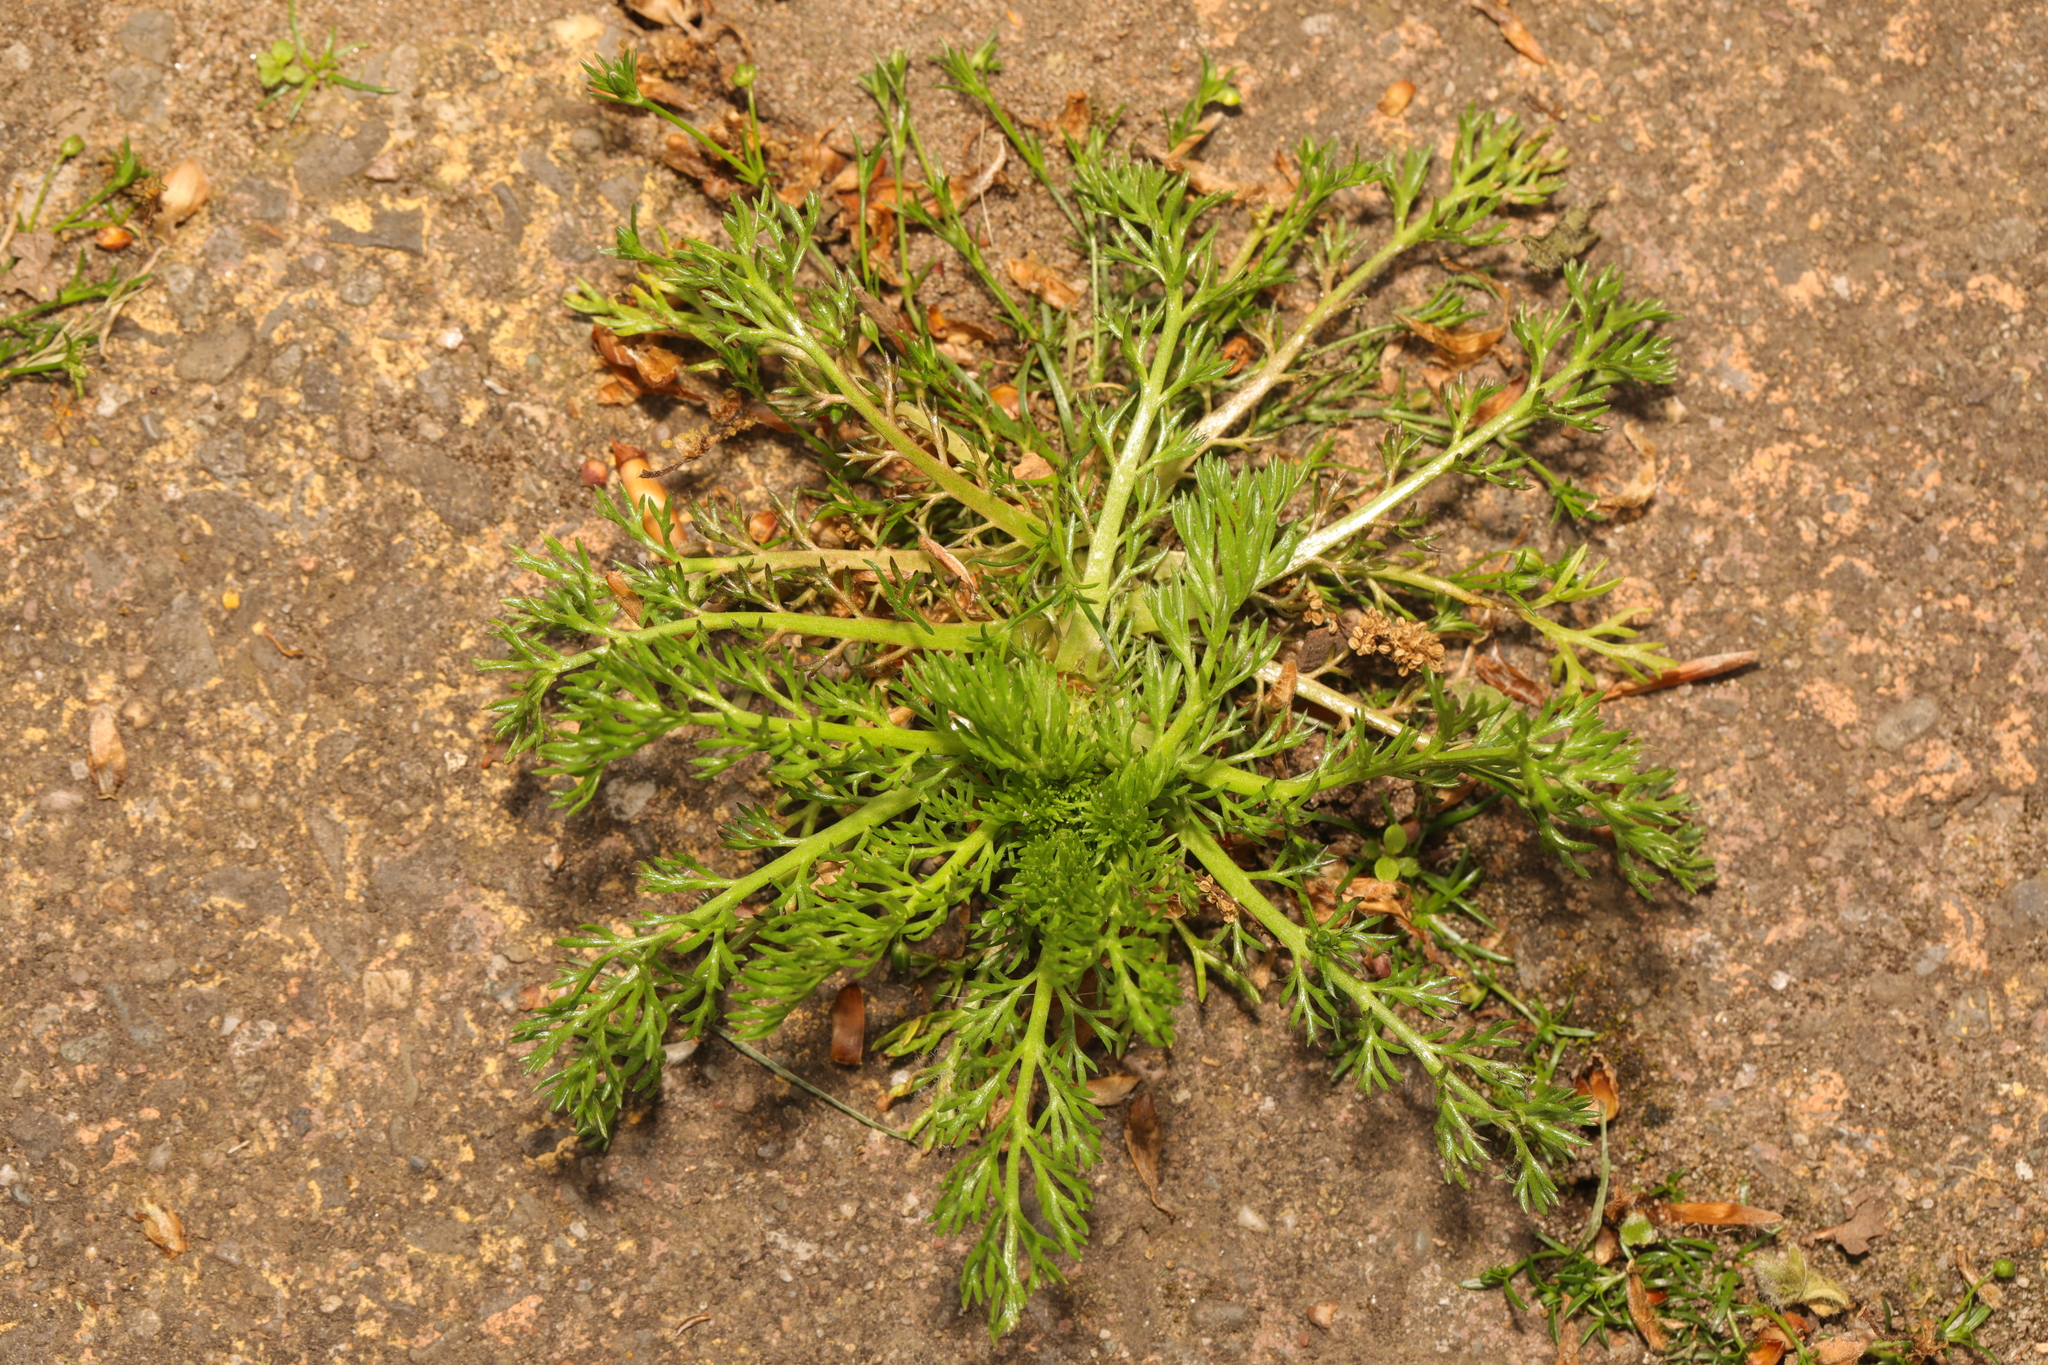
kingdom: Plantae
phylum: Tracheophyta
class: Magnoliopsida
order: Asterales
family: Asteraceae
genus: Matricaria
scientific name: Matricaria discoidea
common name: Disc mayweed
